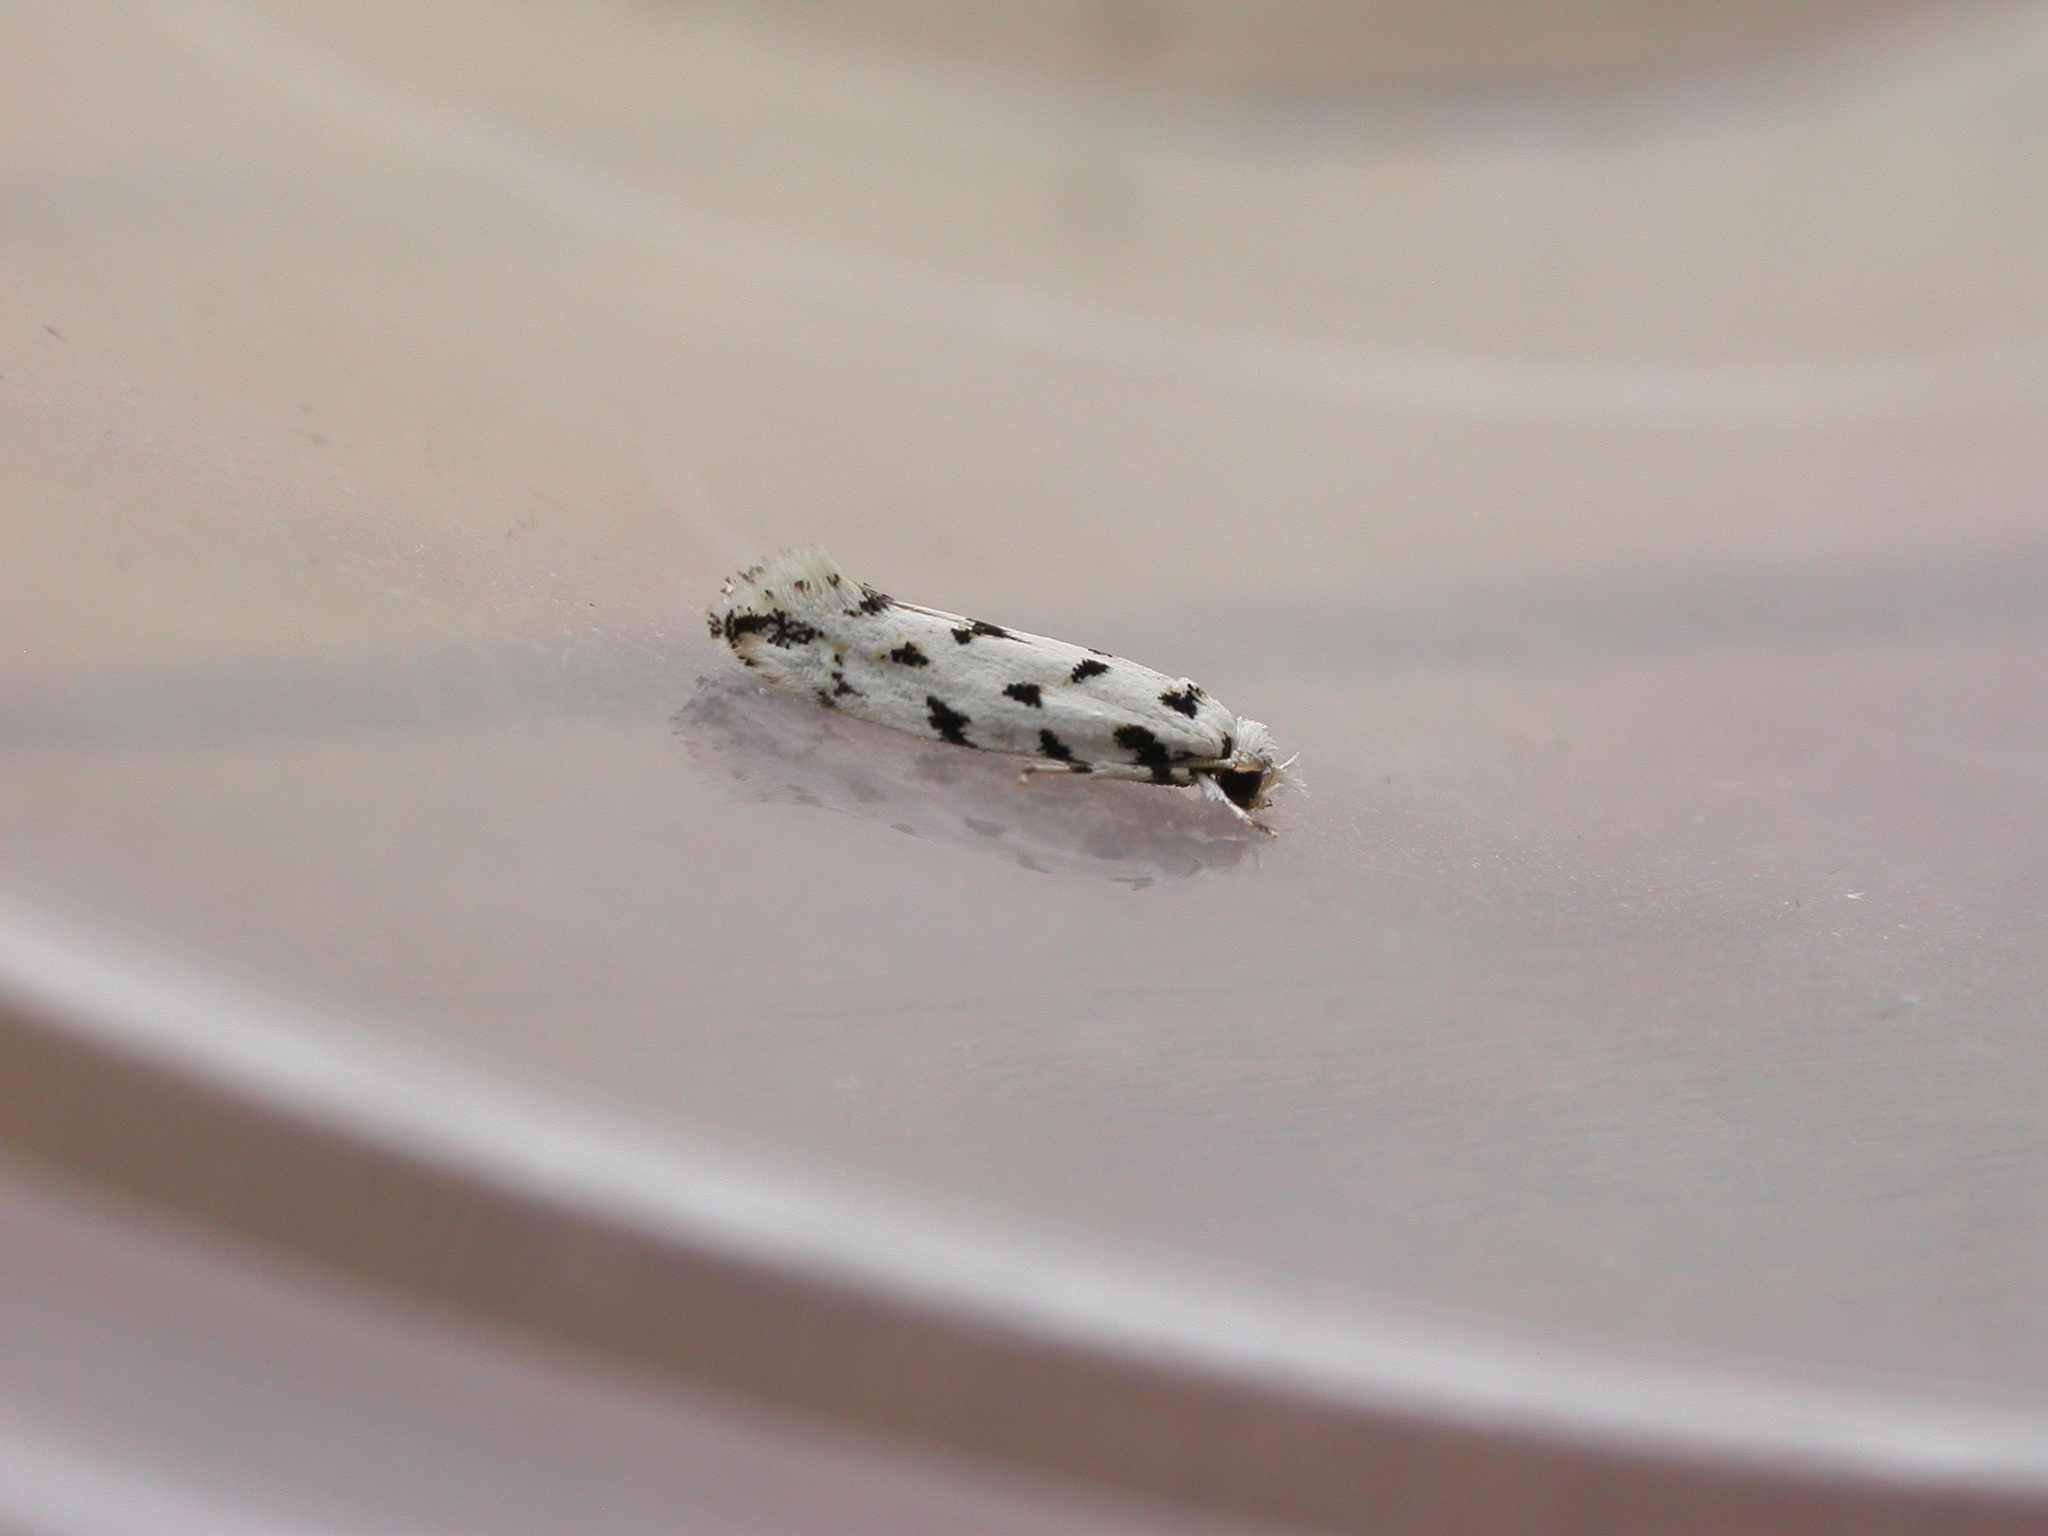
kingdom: Animalia
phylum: Arthropoda
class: Insecta
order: Lepidoptera
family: Tineidae
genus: Erechthias
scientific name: Erechthias simulans
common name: Fungus moth
